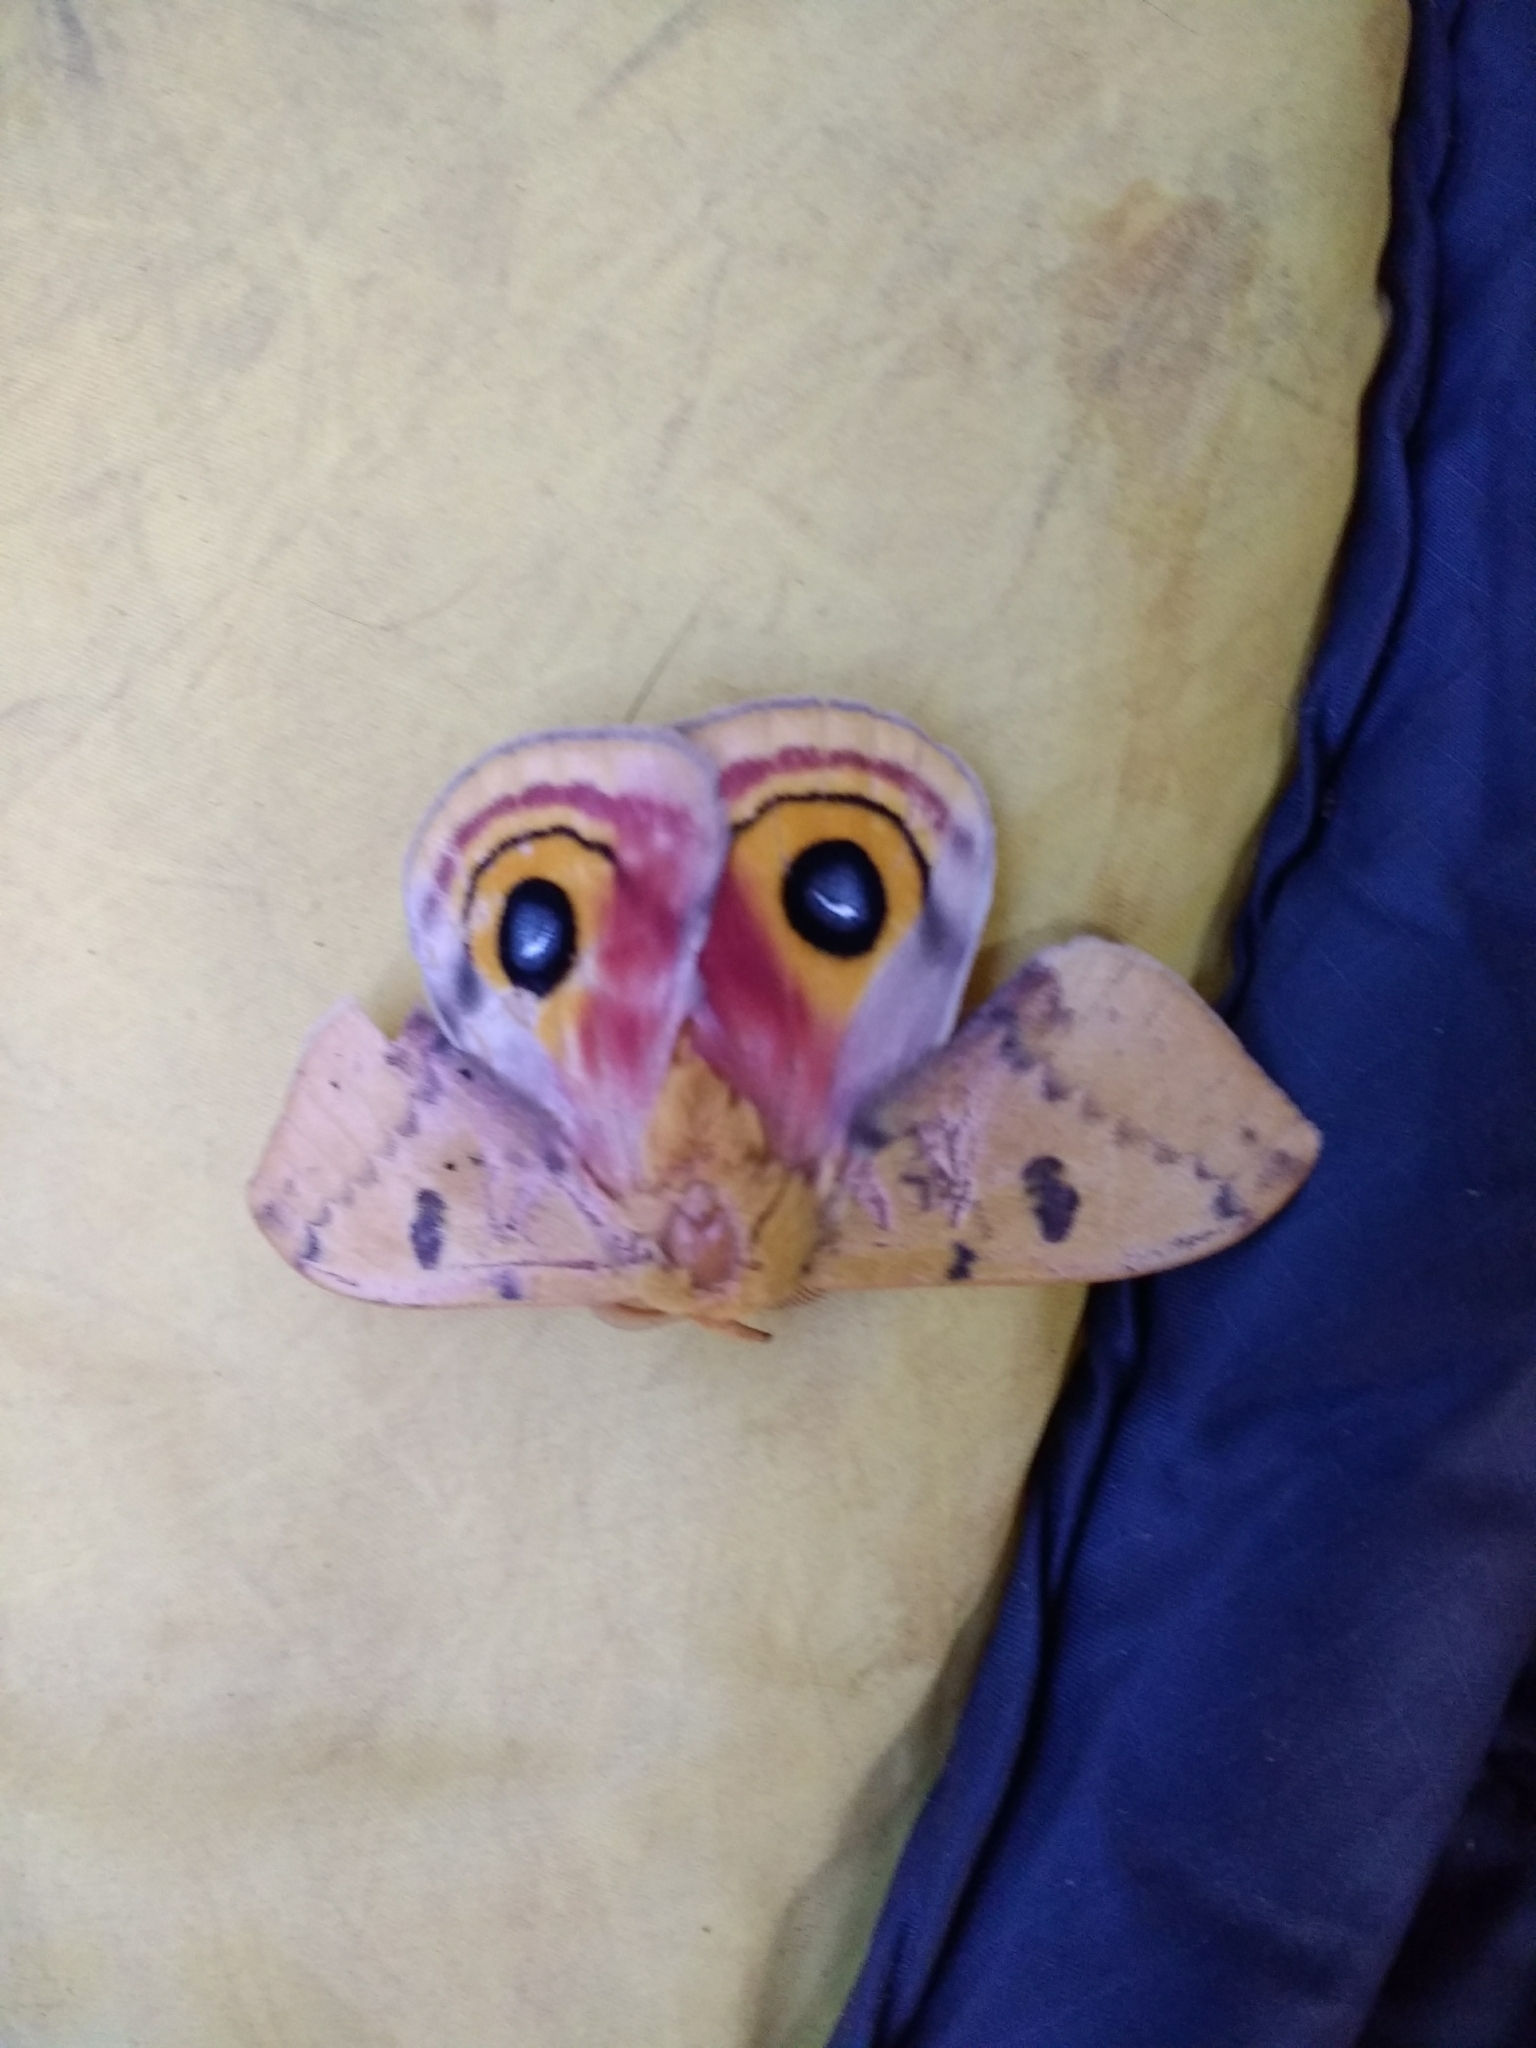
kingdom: Animalia
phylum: Arthropoda
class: Insecta
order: Lepidoptera
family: Saturniidae
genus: Automeris
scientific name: Automeris io
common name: Io moth
